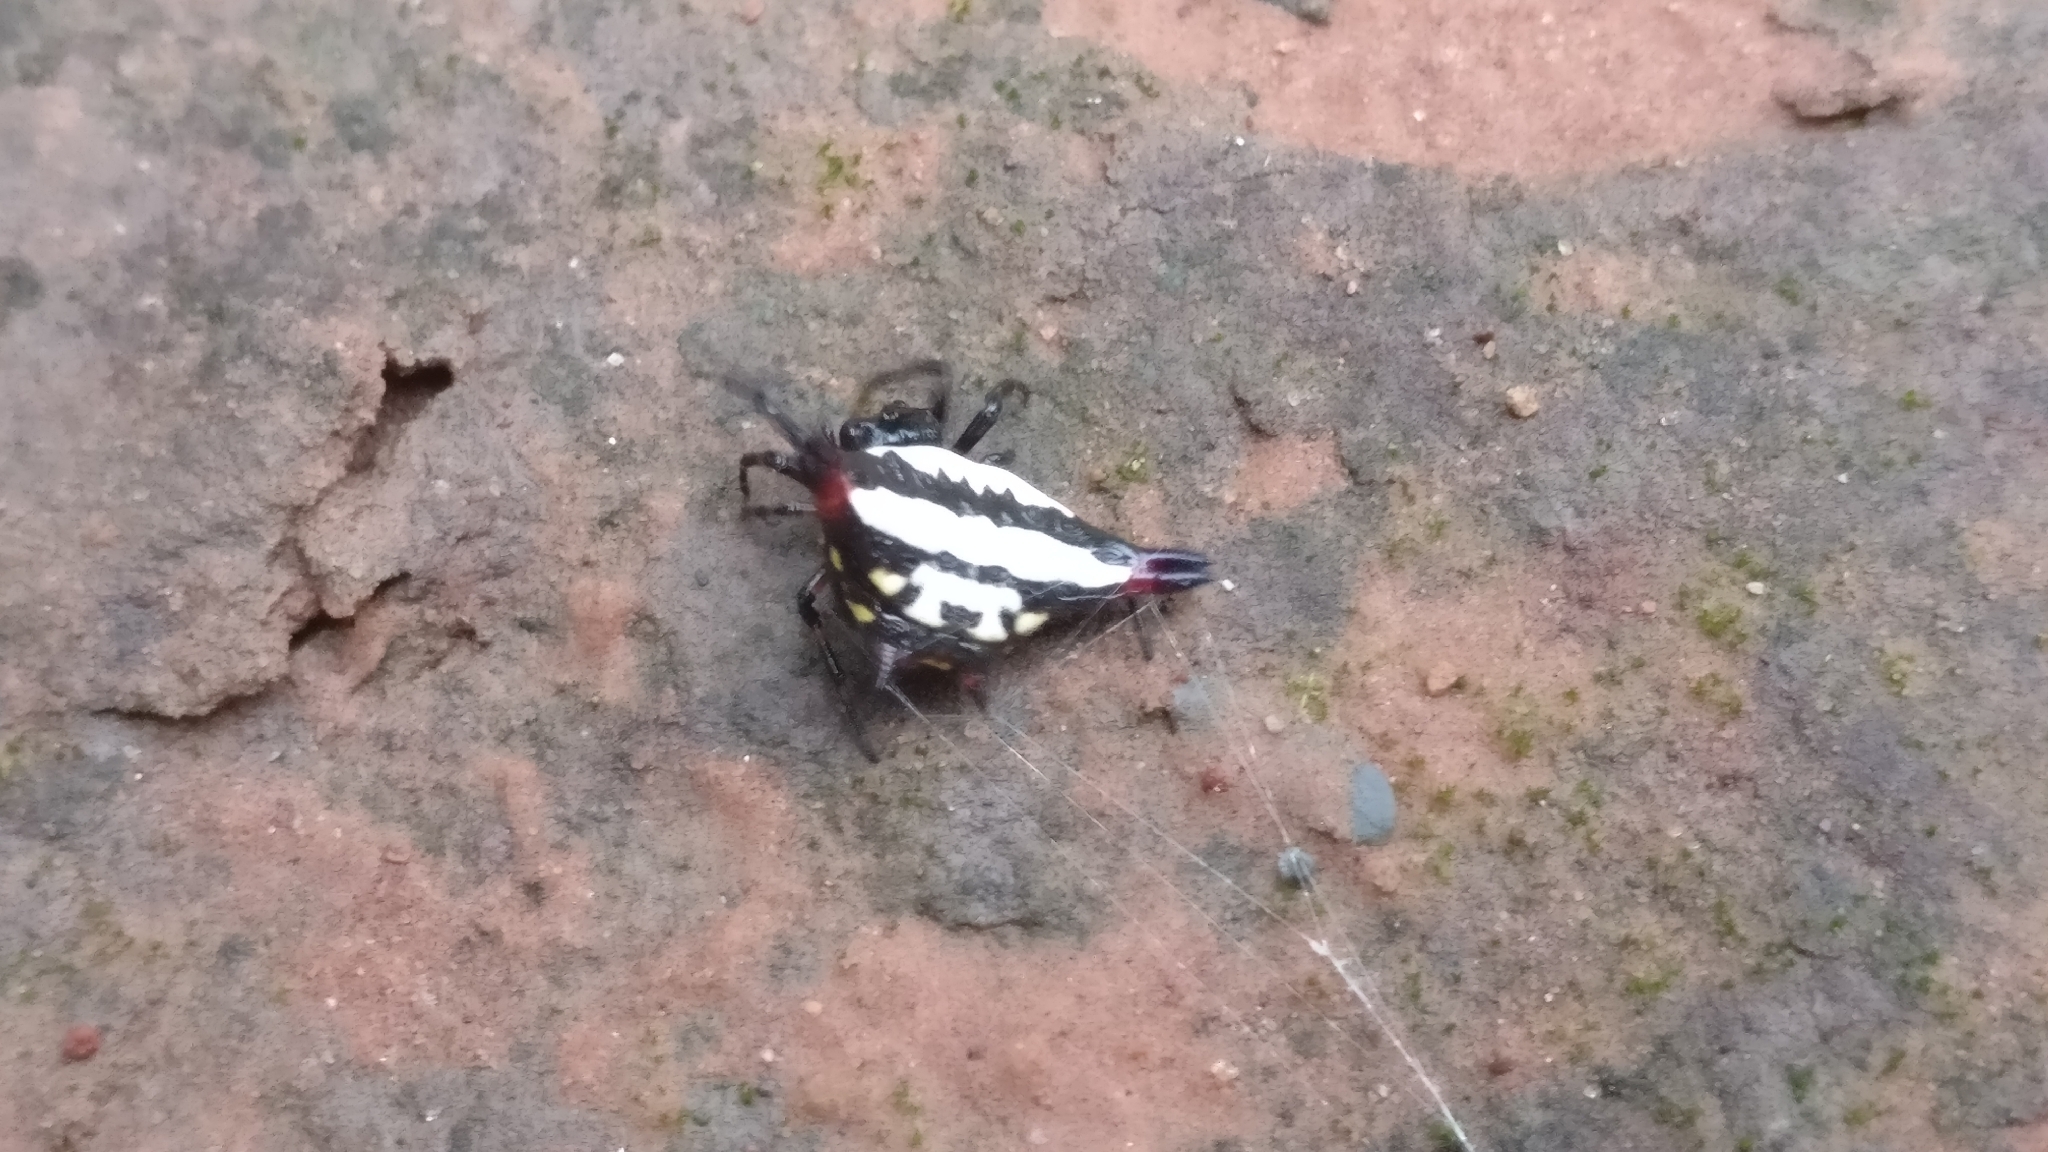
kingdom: Animalia
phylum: Arthropoda
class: Arachnida
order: Araneae
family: Araneidae
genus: Gasteracantha
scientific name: Gasteracantha geminata
